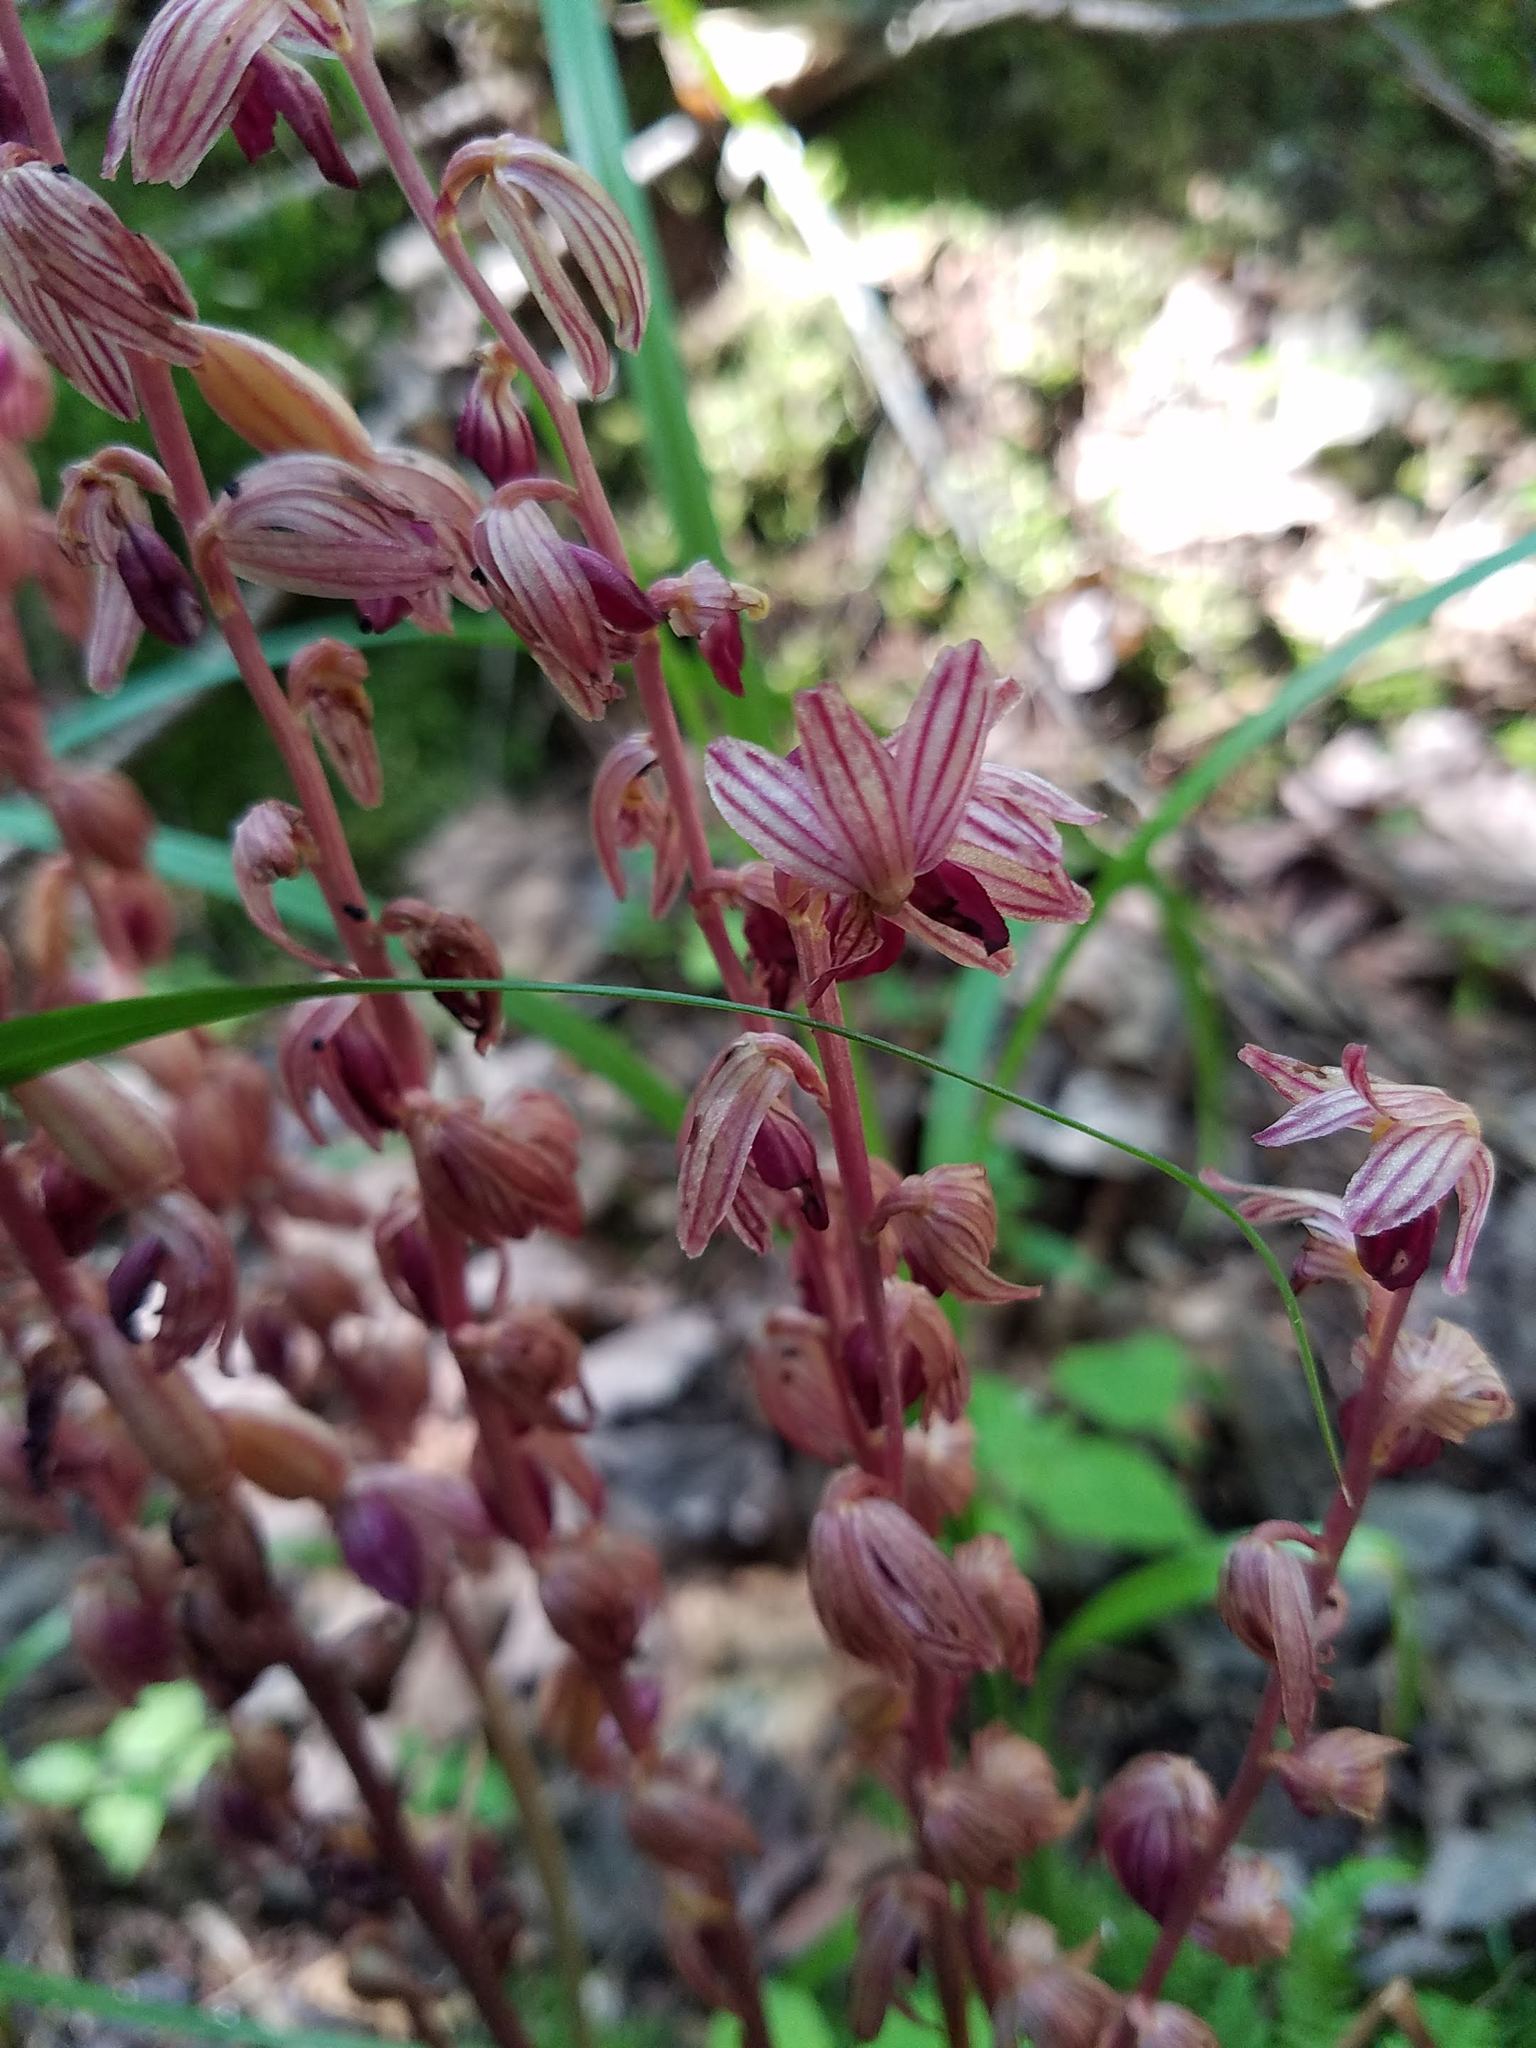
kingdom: Plantae
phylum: Tracheophyta
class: Liliopsida
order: Asparagales
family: Orchidaceae
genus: Corallorhiza
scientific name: Corallorhiza striata
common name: Hooded coralroot
